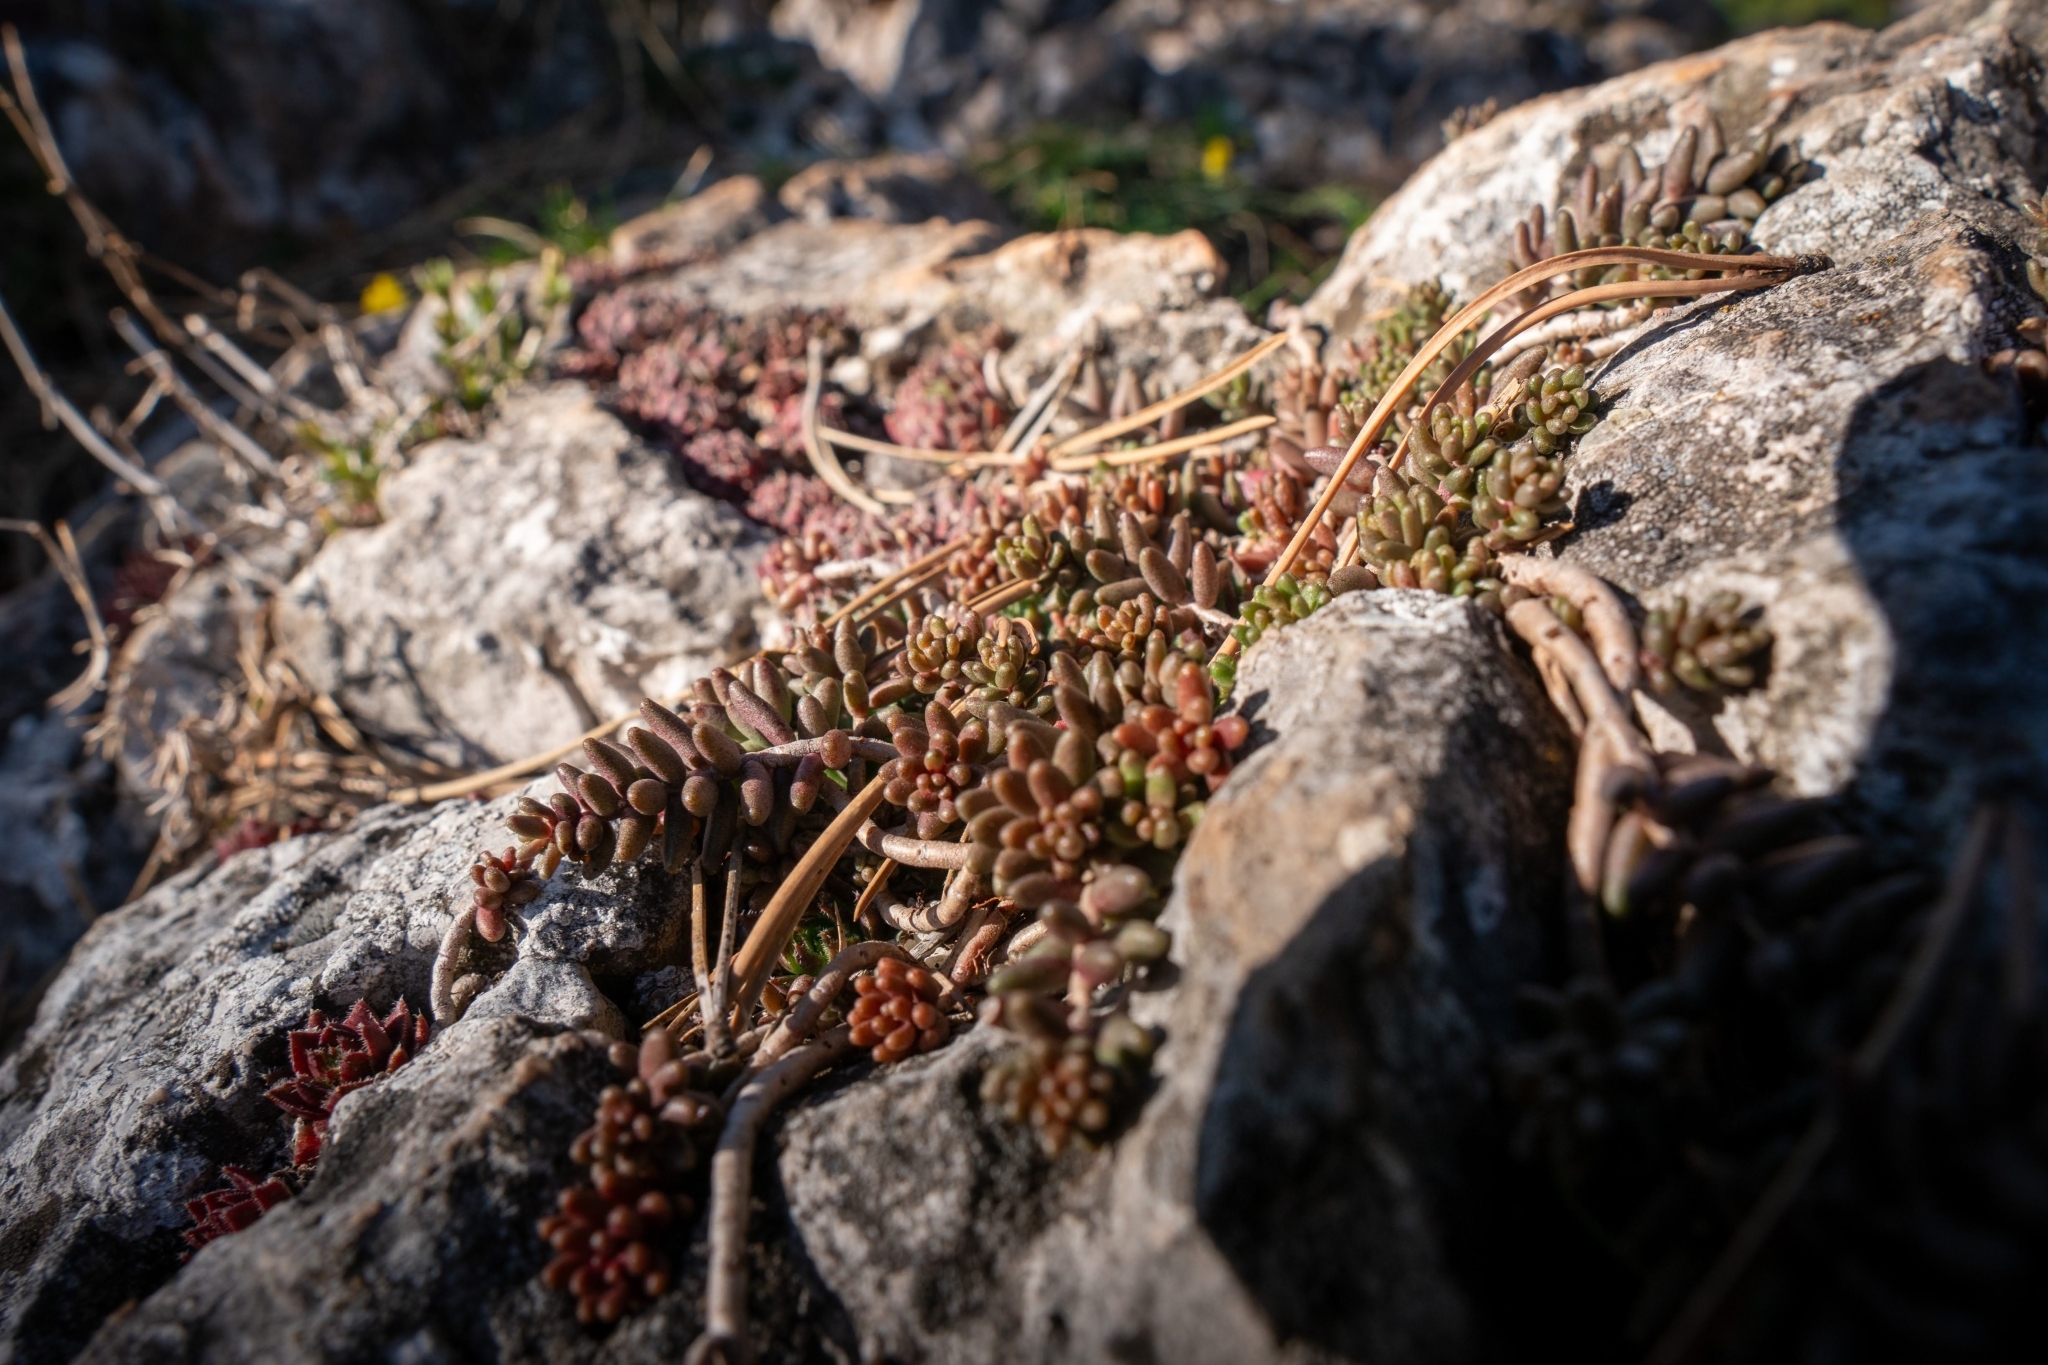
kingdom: Plantae
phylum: Tracheophyta
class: Magnoliopsida
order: Saxifragales
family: Crassulaceae
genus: Sedum
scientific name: Sedum album
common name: White stonecrop
